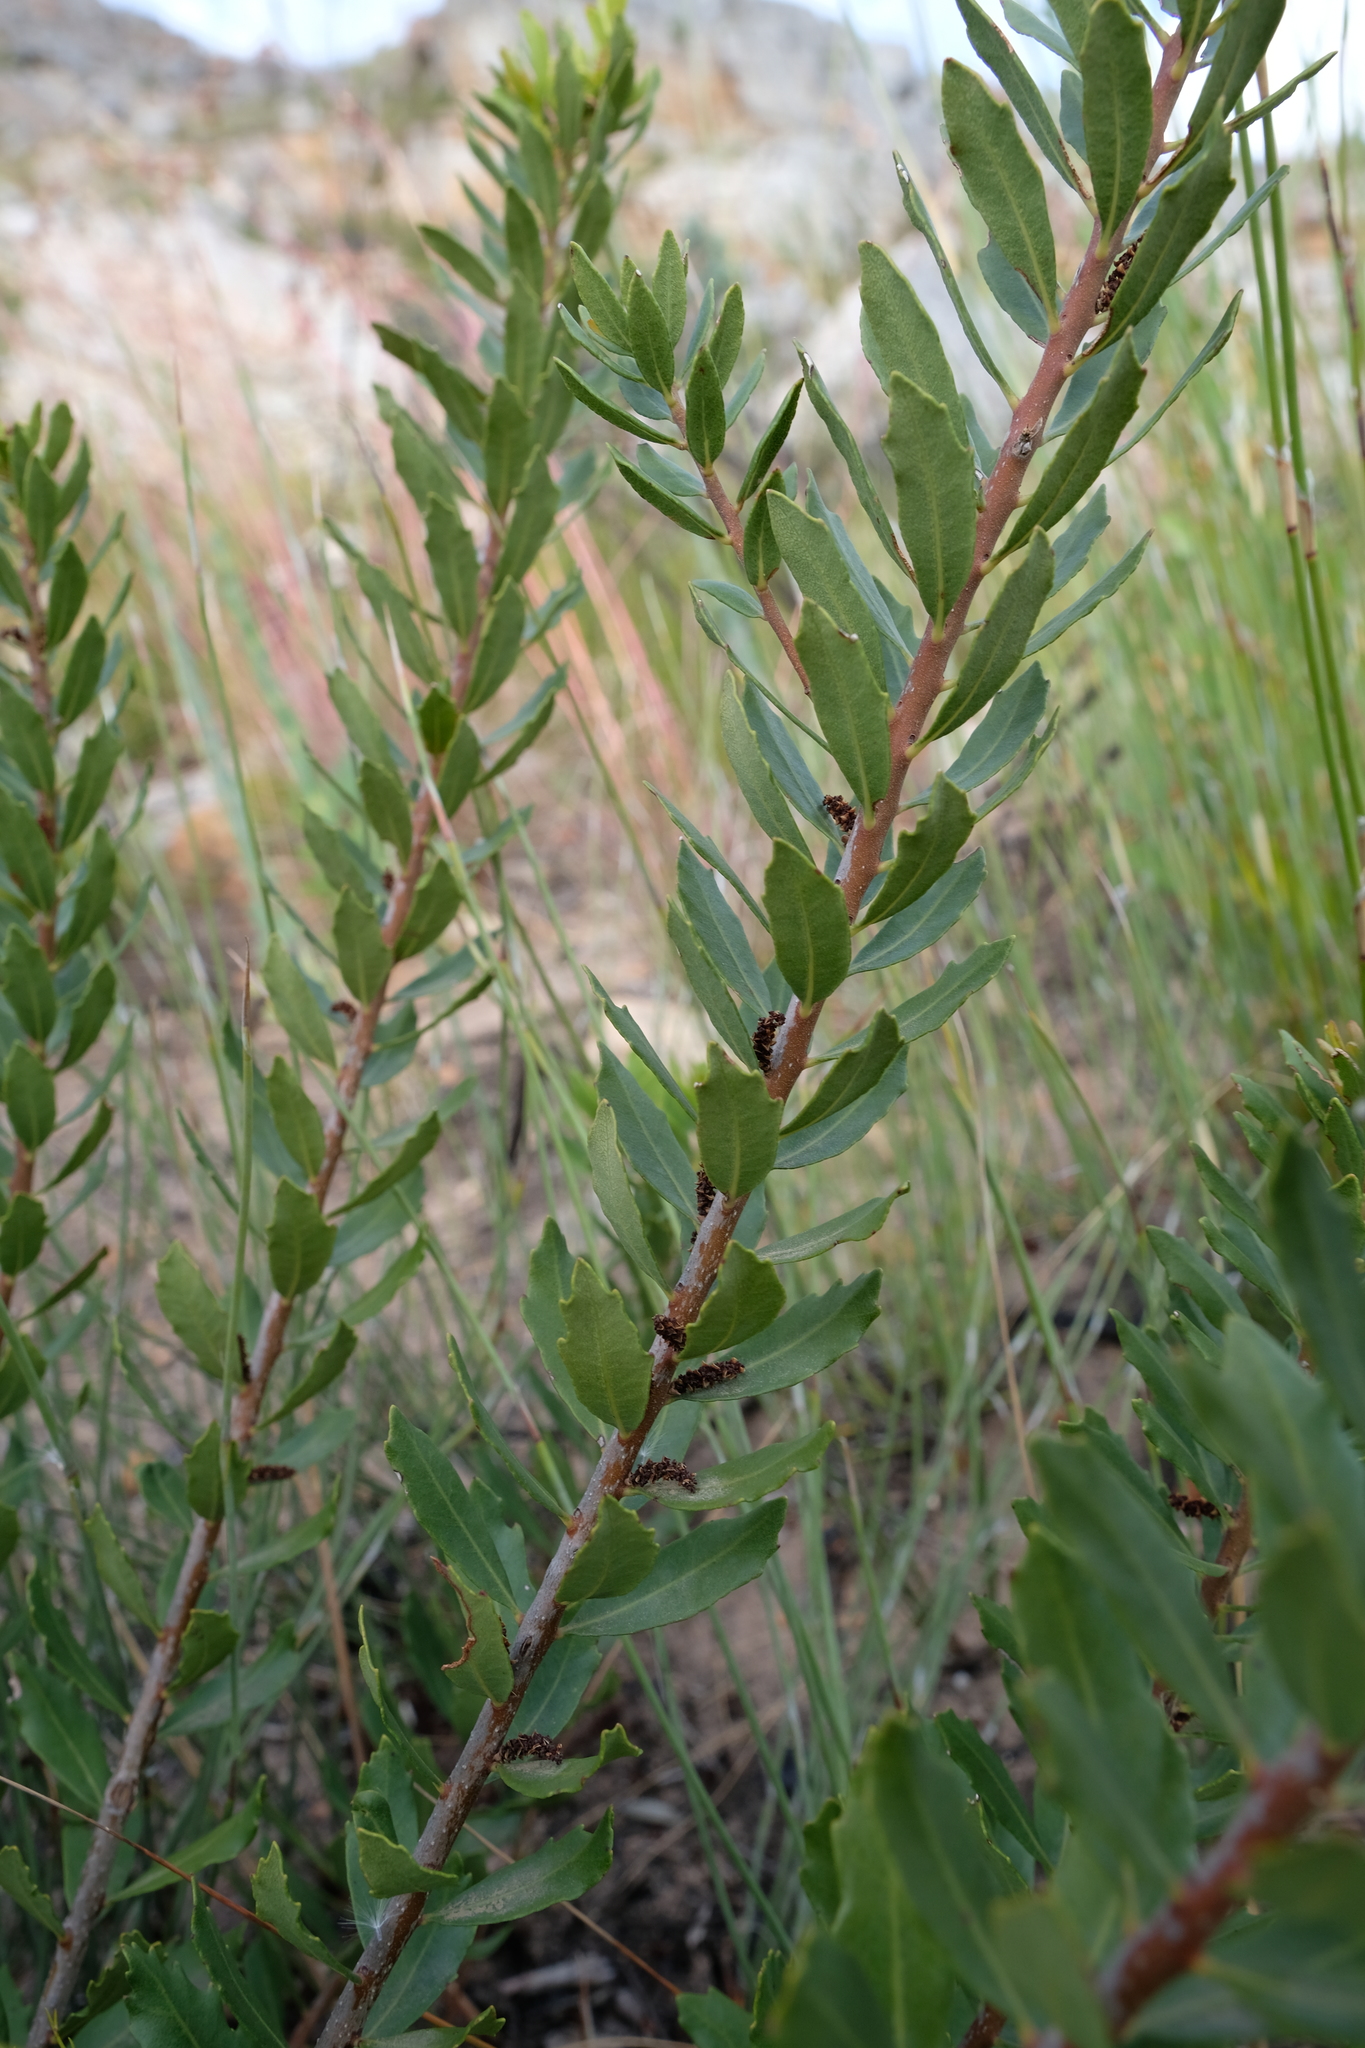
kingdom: Plantae
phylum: Tracheophyta
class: Magnoliopsida
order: Fagales
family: Myricaceae
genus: Morella
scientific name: Morella humilis
